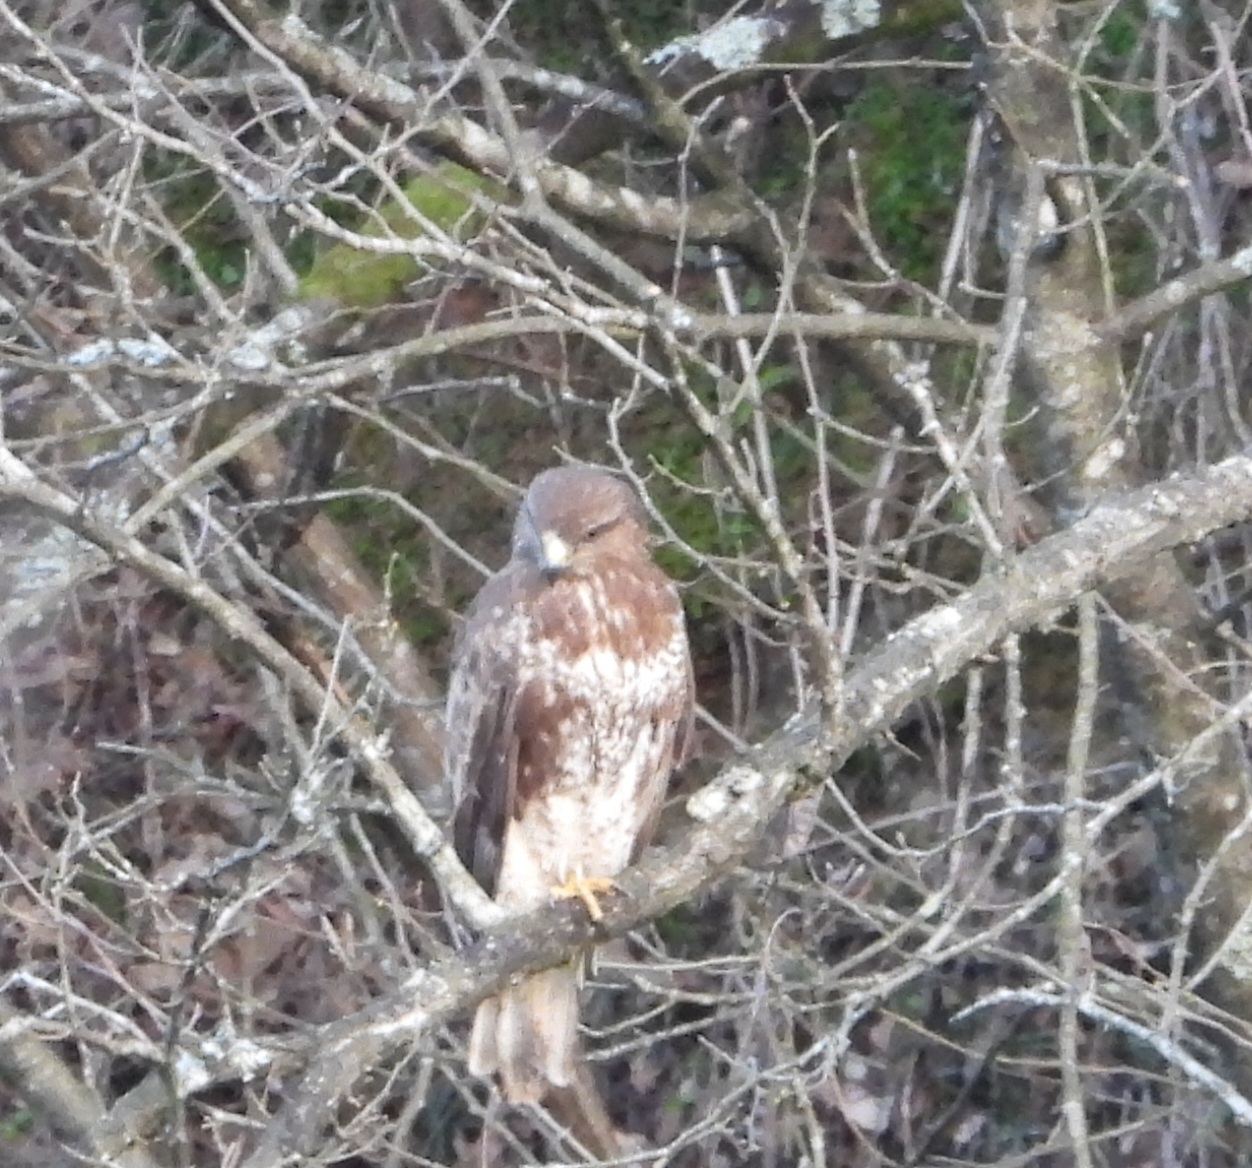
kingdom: Animalia
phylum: Chordata
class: Aves
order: Accipitriformes
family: Accipitridae
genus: Buteo
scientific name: Buteo buteo
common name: Common buzzard
